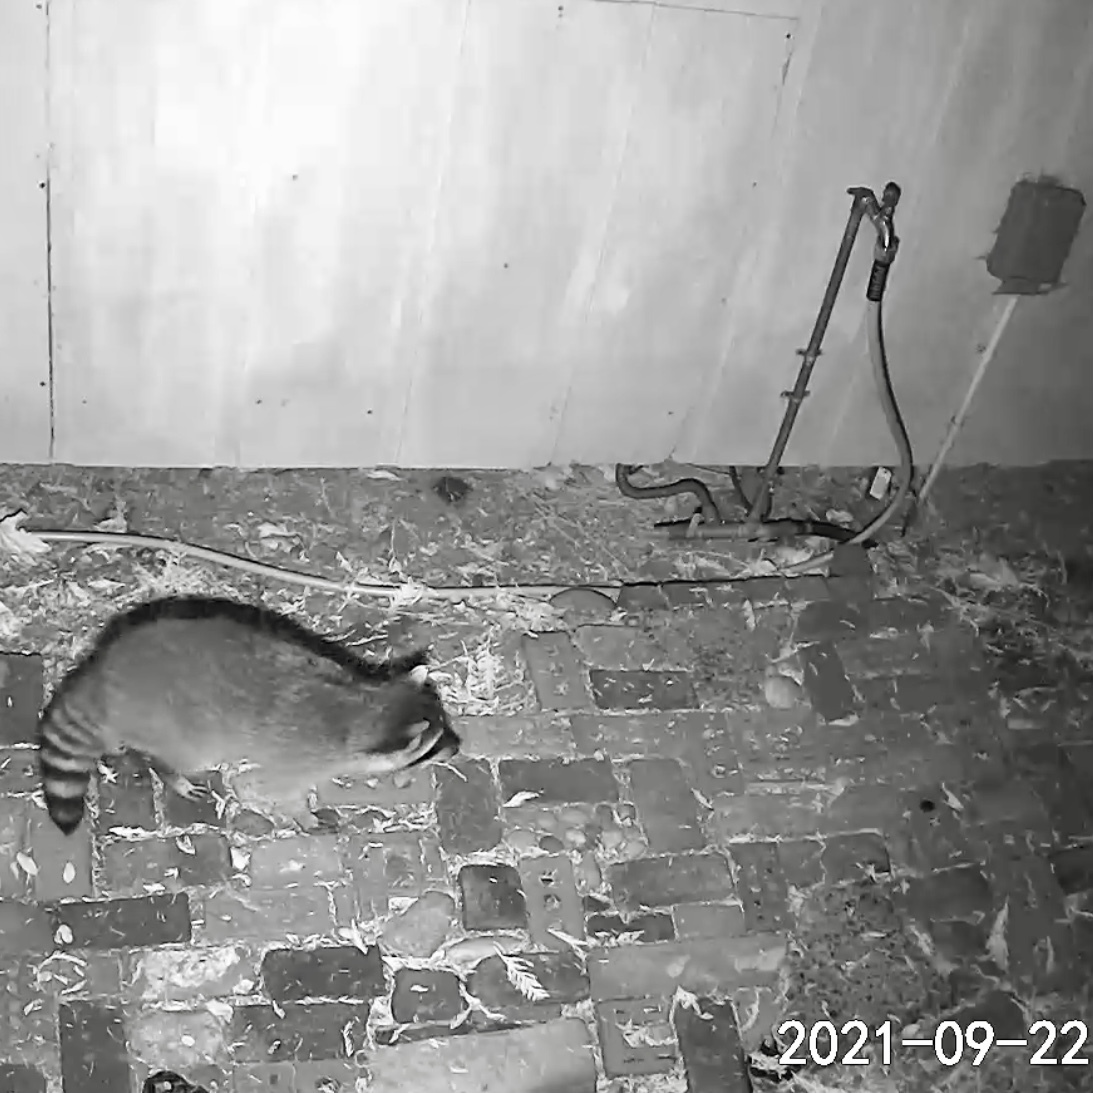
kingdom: Animalia
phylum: Chordata
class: Mammalia
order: Carnivora
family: Procyonidae
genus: Procyon
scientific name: Procyon lotor
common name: Raccoon
